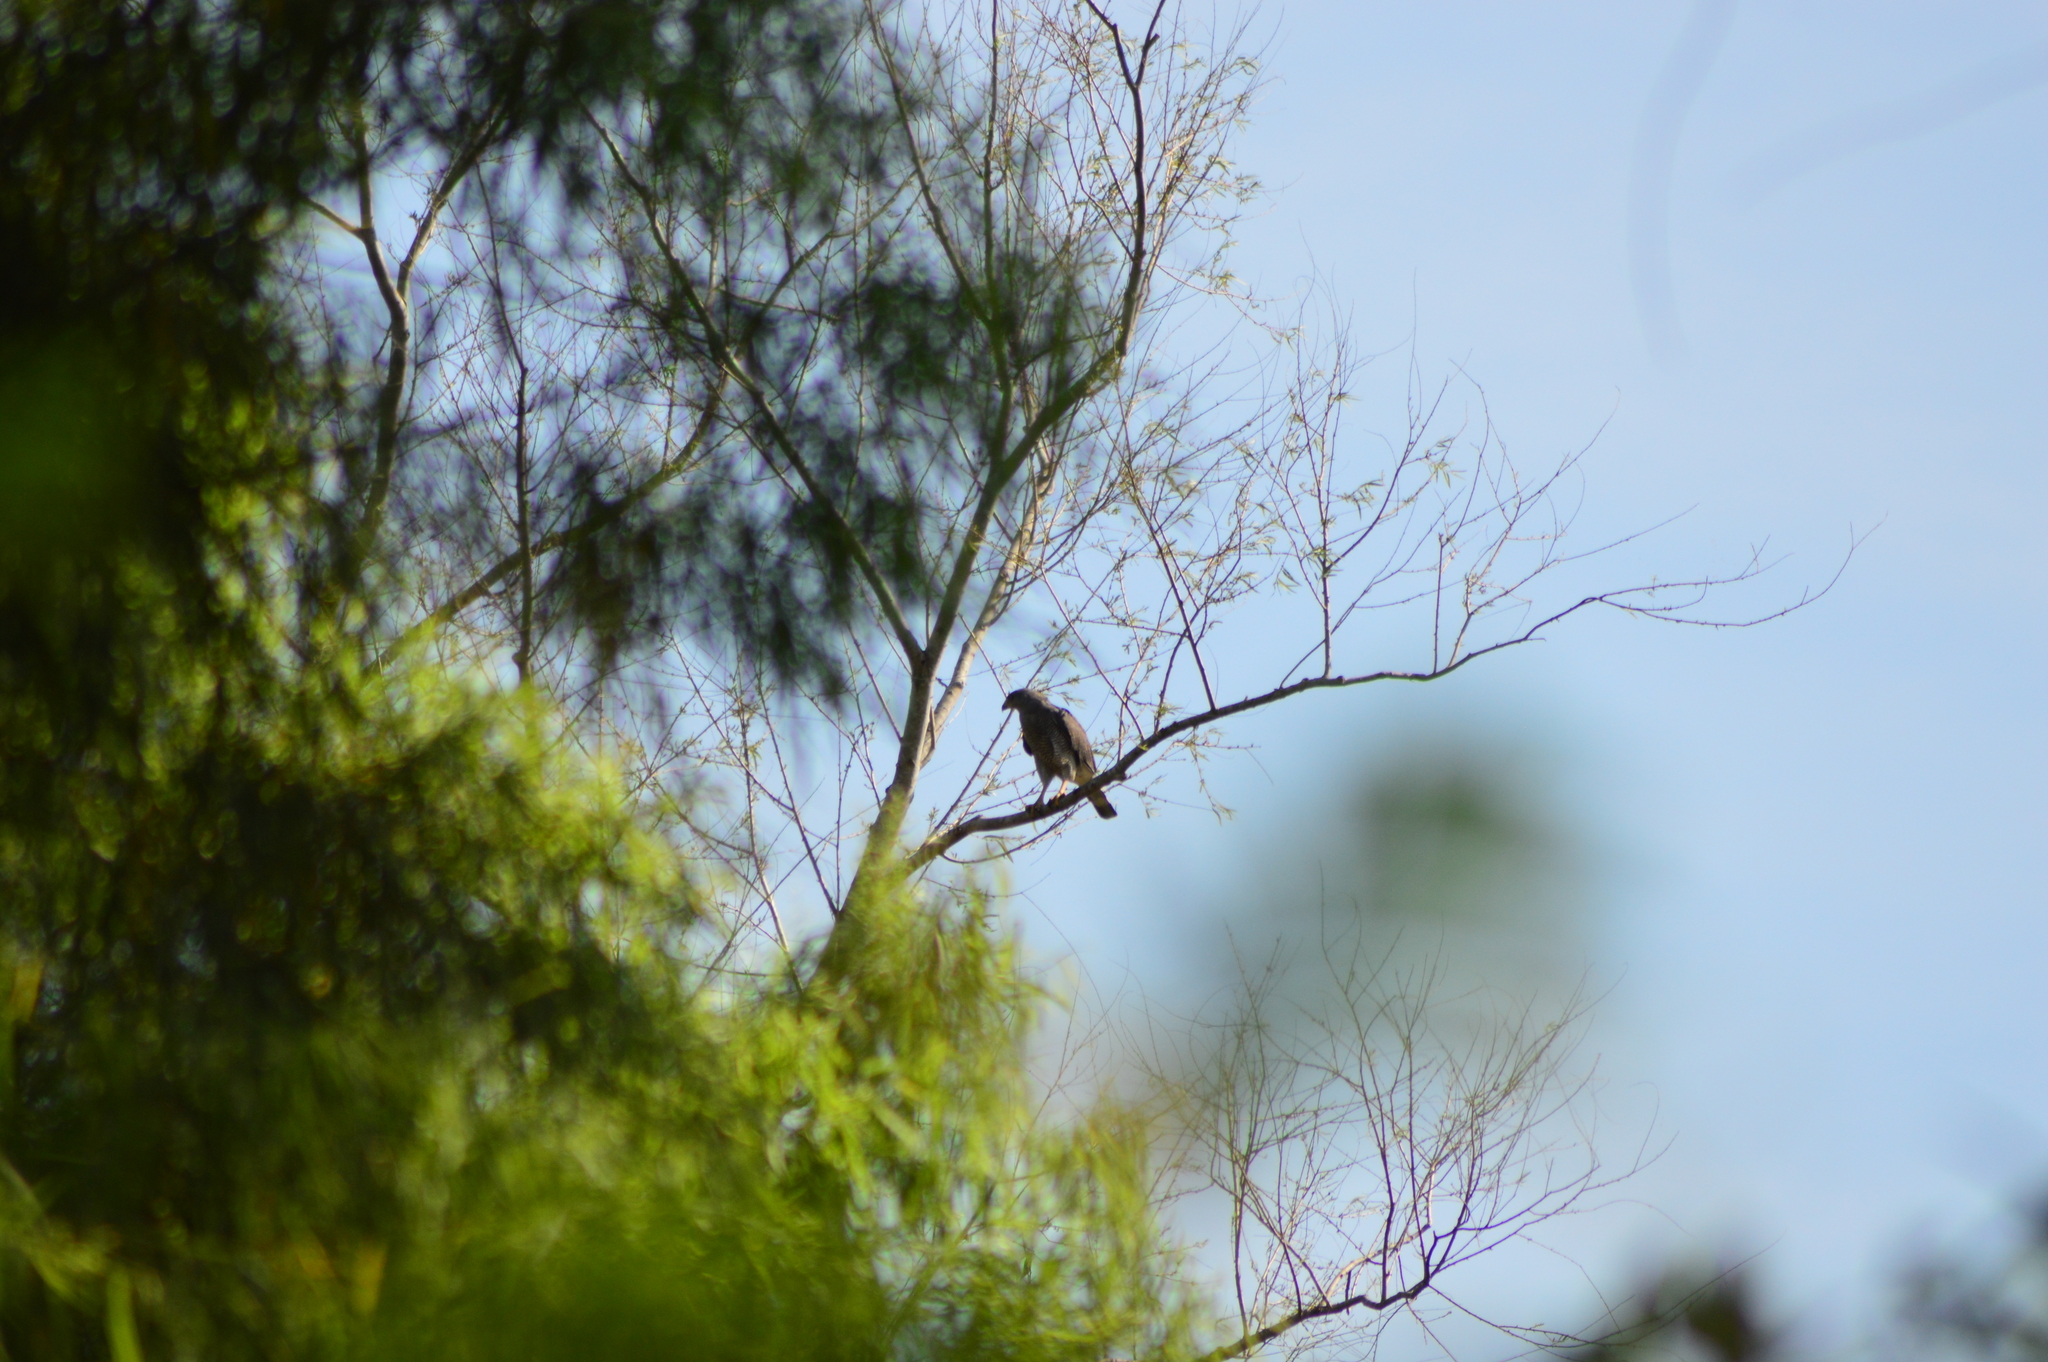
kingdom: Animalia
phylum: Chordata
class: Aves
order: Accipitriformes
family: Accipitridae
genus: Buteo
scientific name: Buteo nitidus
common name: Grey-lined hawk
